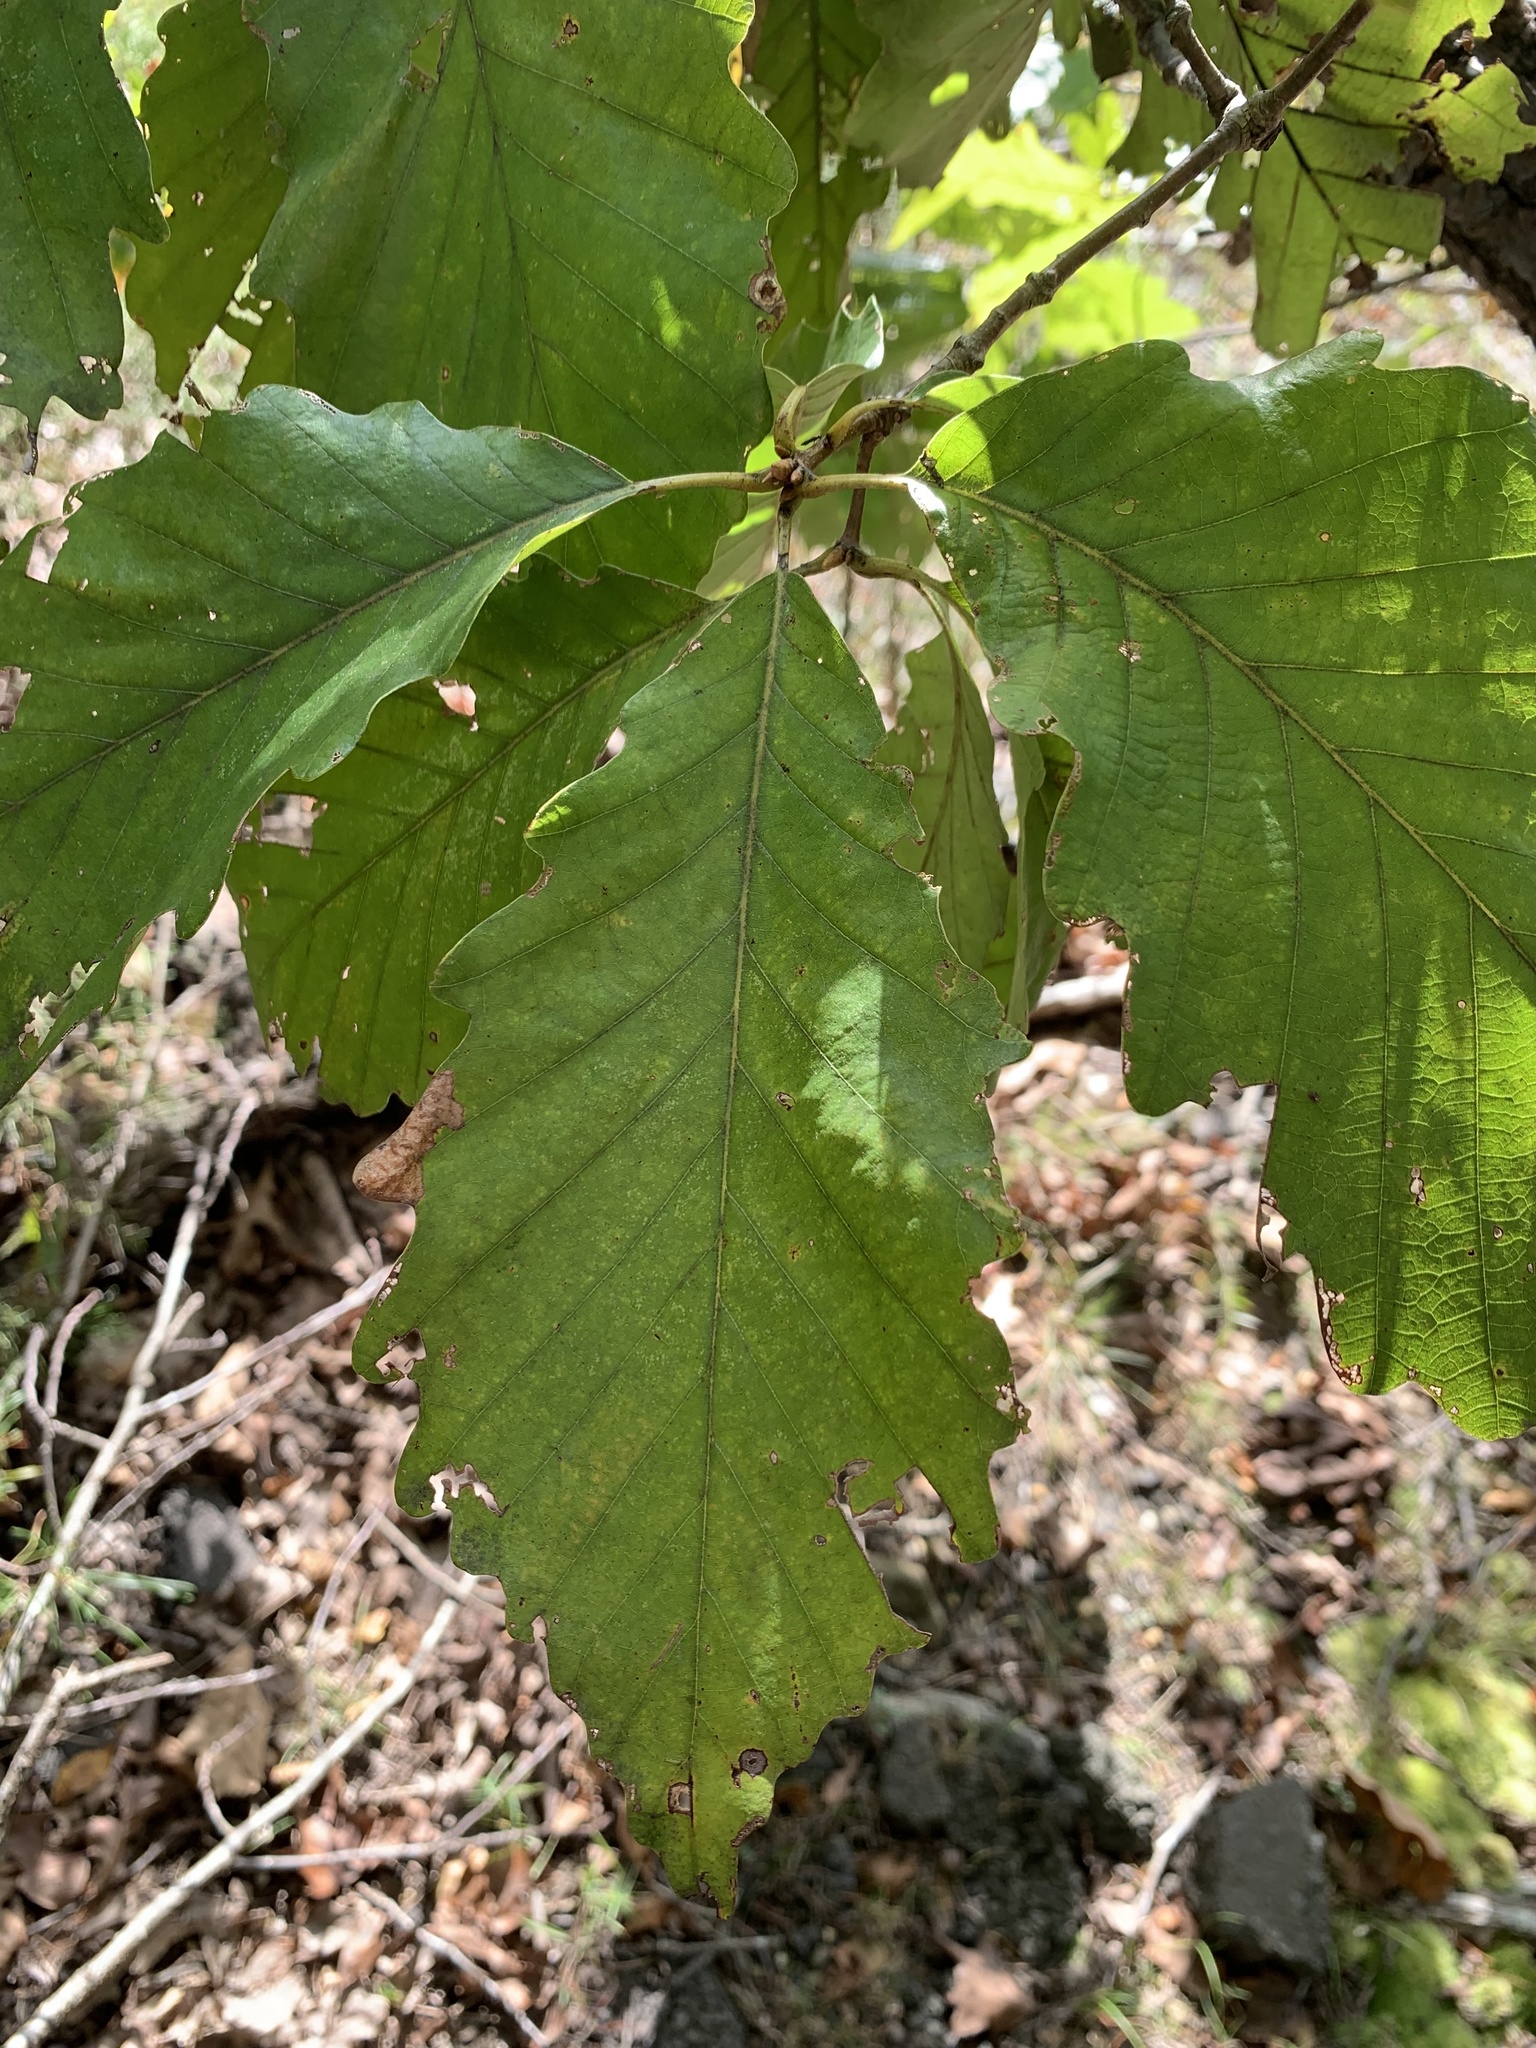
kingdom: Plantae
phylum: Tracheophyta
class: Magnoliopsida
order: Fagales
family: Fagaceae
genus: Quercus
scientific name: Quercus montana
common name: Chestnut oak
